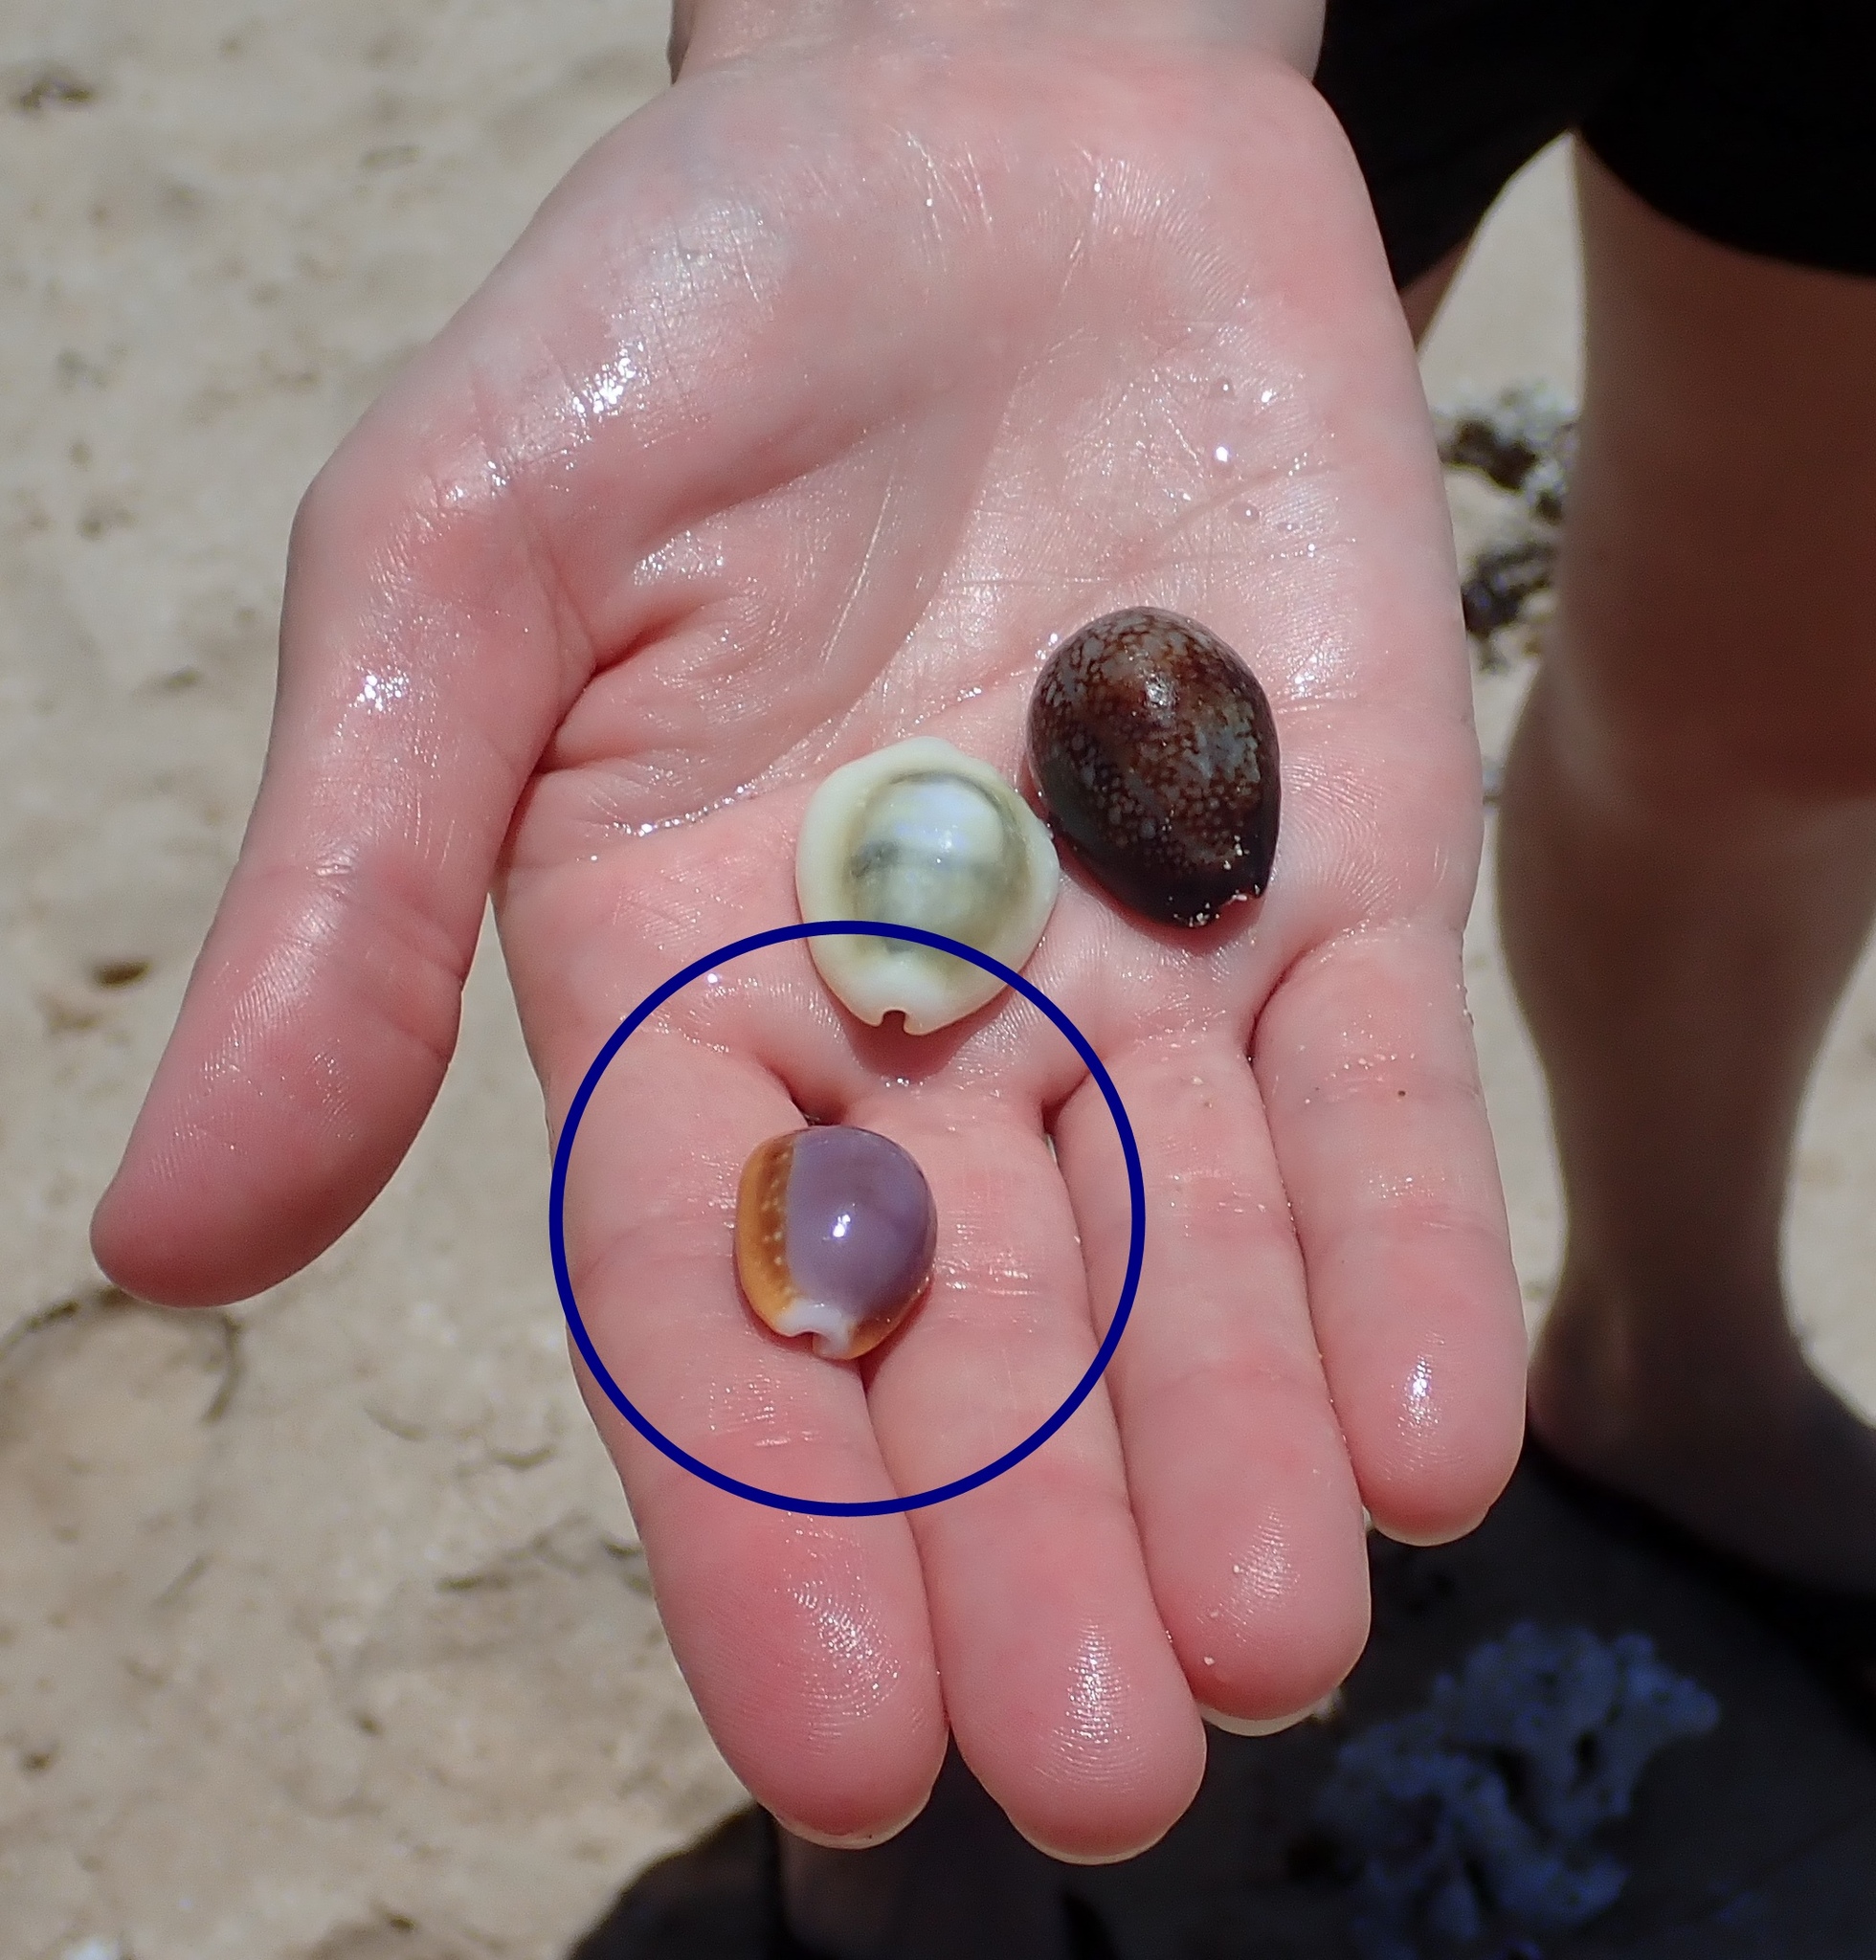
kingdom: Animalia
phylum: Mollusca
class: Gastropoda
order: Littorinimorpha
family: Cypraeidae
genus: Naria
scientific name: Naria helvola
